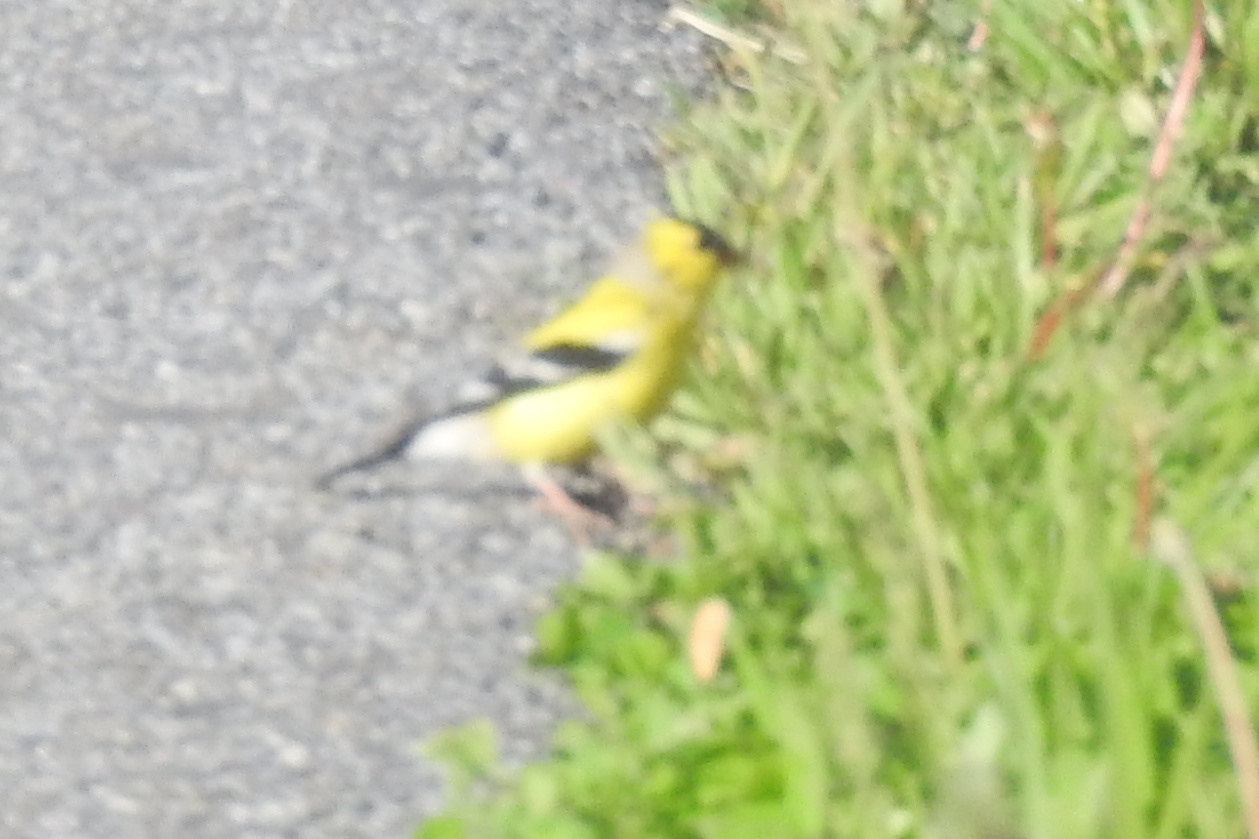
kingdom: Animalia
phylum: Chordata
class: Aves
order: Passeriformes
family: Fringillidae
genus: Spinus
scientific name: Spinus tristis
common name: American goldfinch
